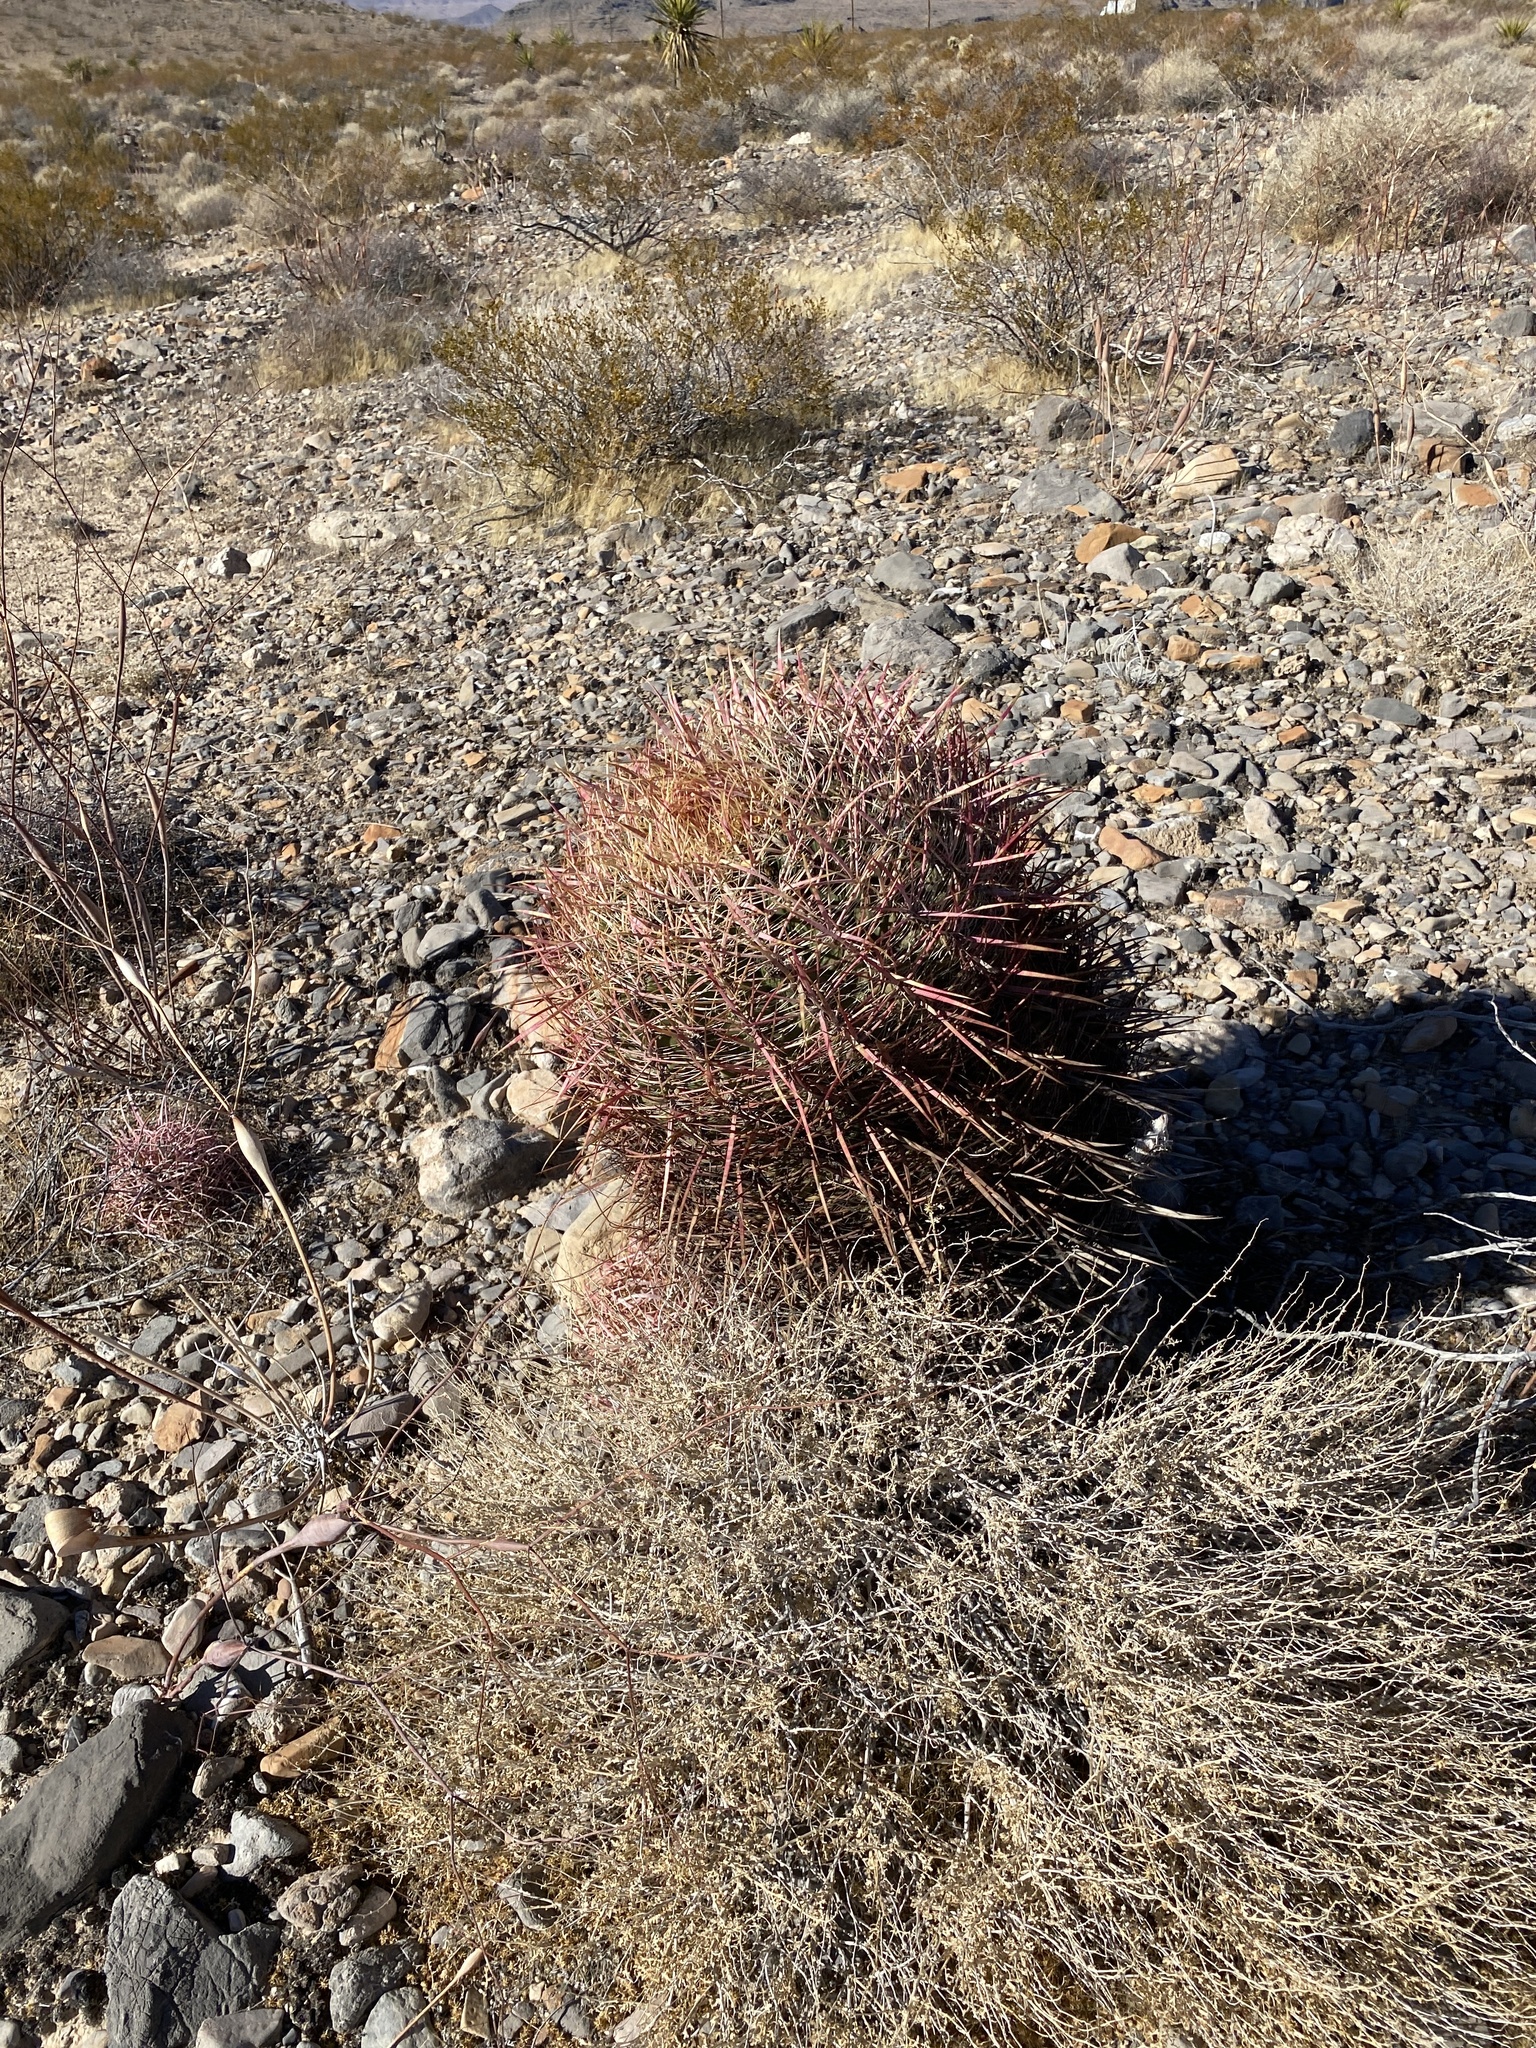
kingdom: Plantae
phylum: Tracheophyta
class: Magnoliopsida
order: Caryophyllales
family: Cactaceae
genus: Ferocactus
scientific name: Ferocactus cylindraceus
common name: California barrel cactus
